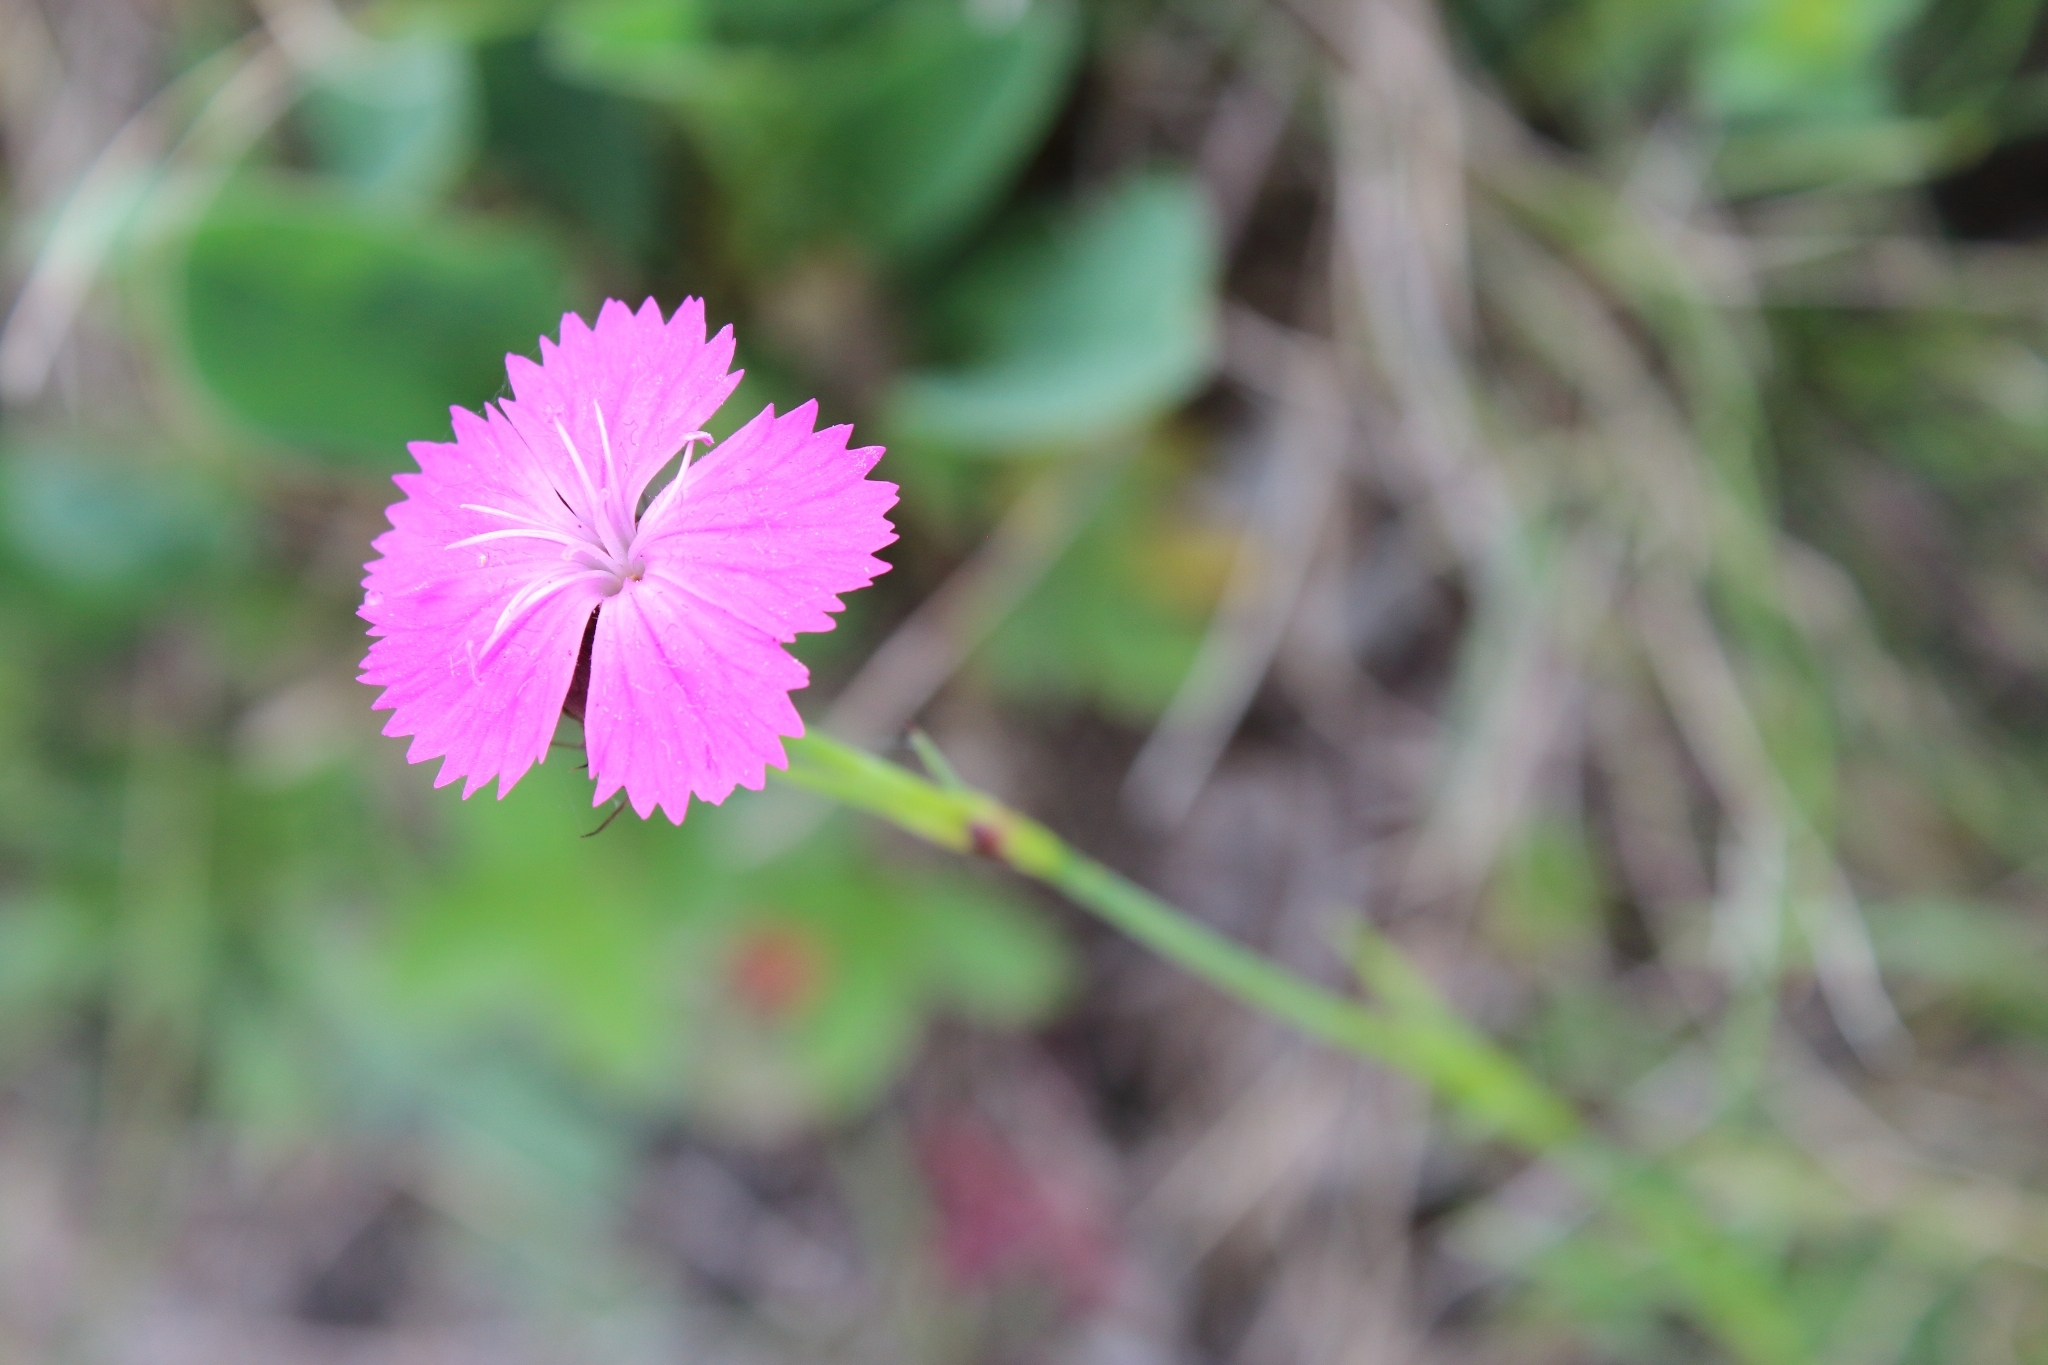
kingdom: Plantae
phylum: Tracheophyta
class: Magnoliopsida
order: Caryophyllales
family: Caryophyllaceae
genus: Dianthus
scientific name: Dianthus carthusianorum
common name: Carthusian pink
